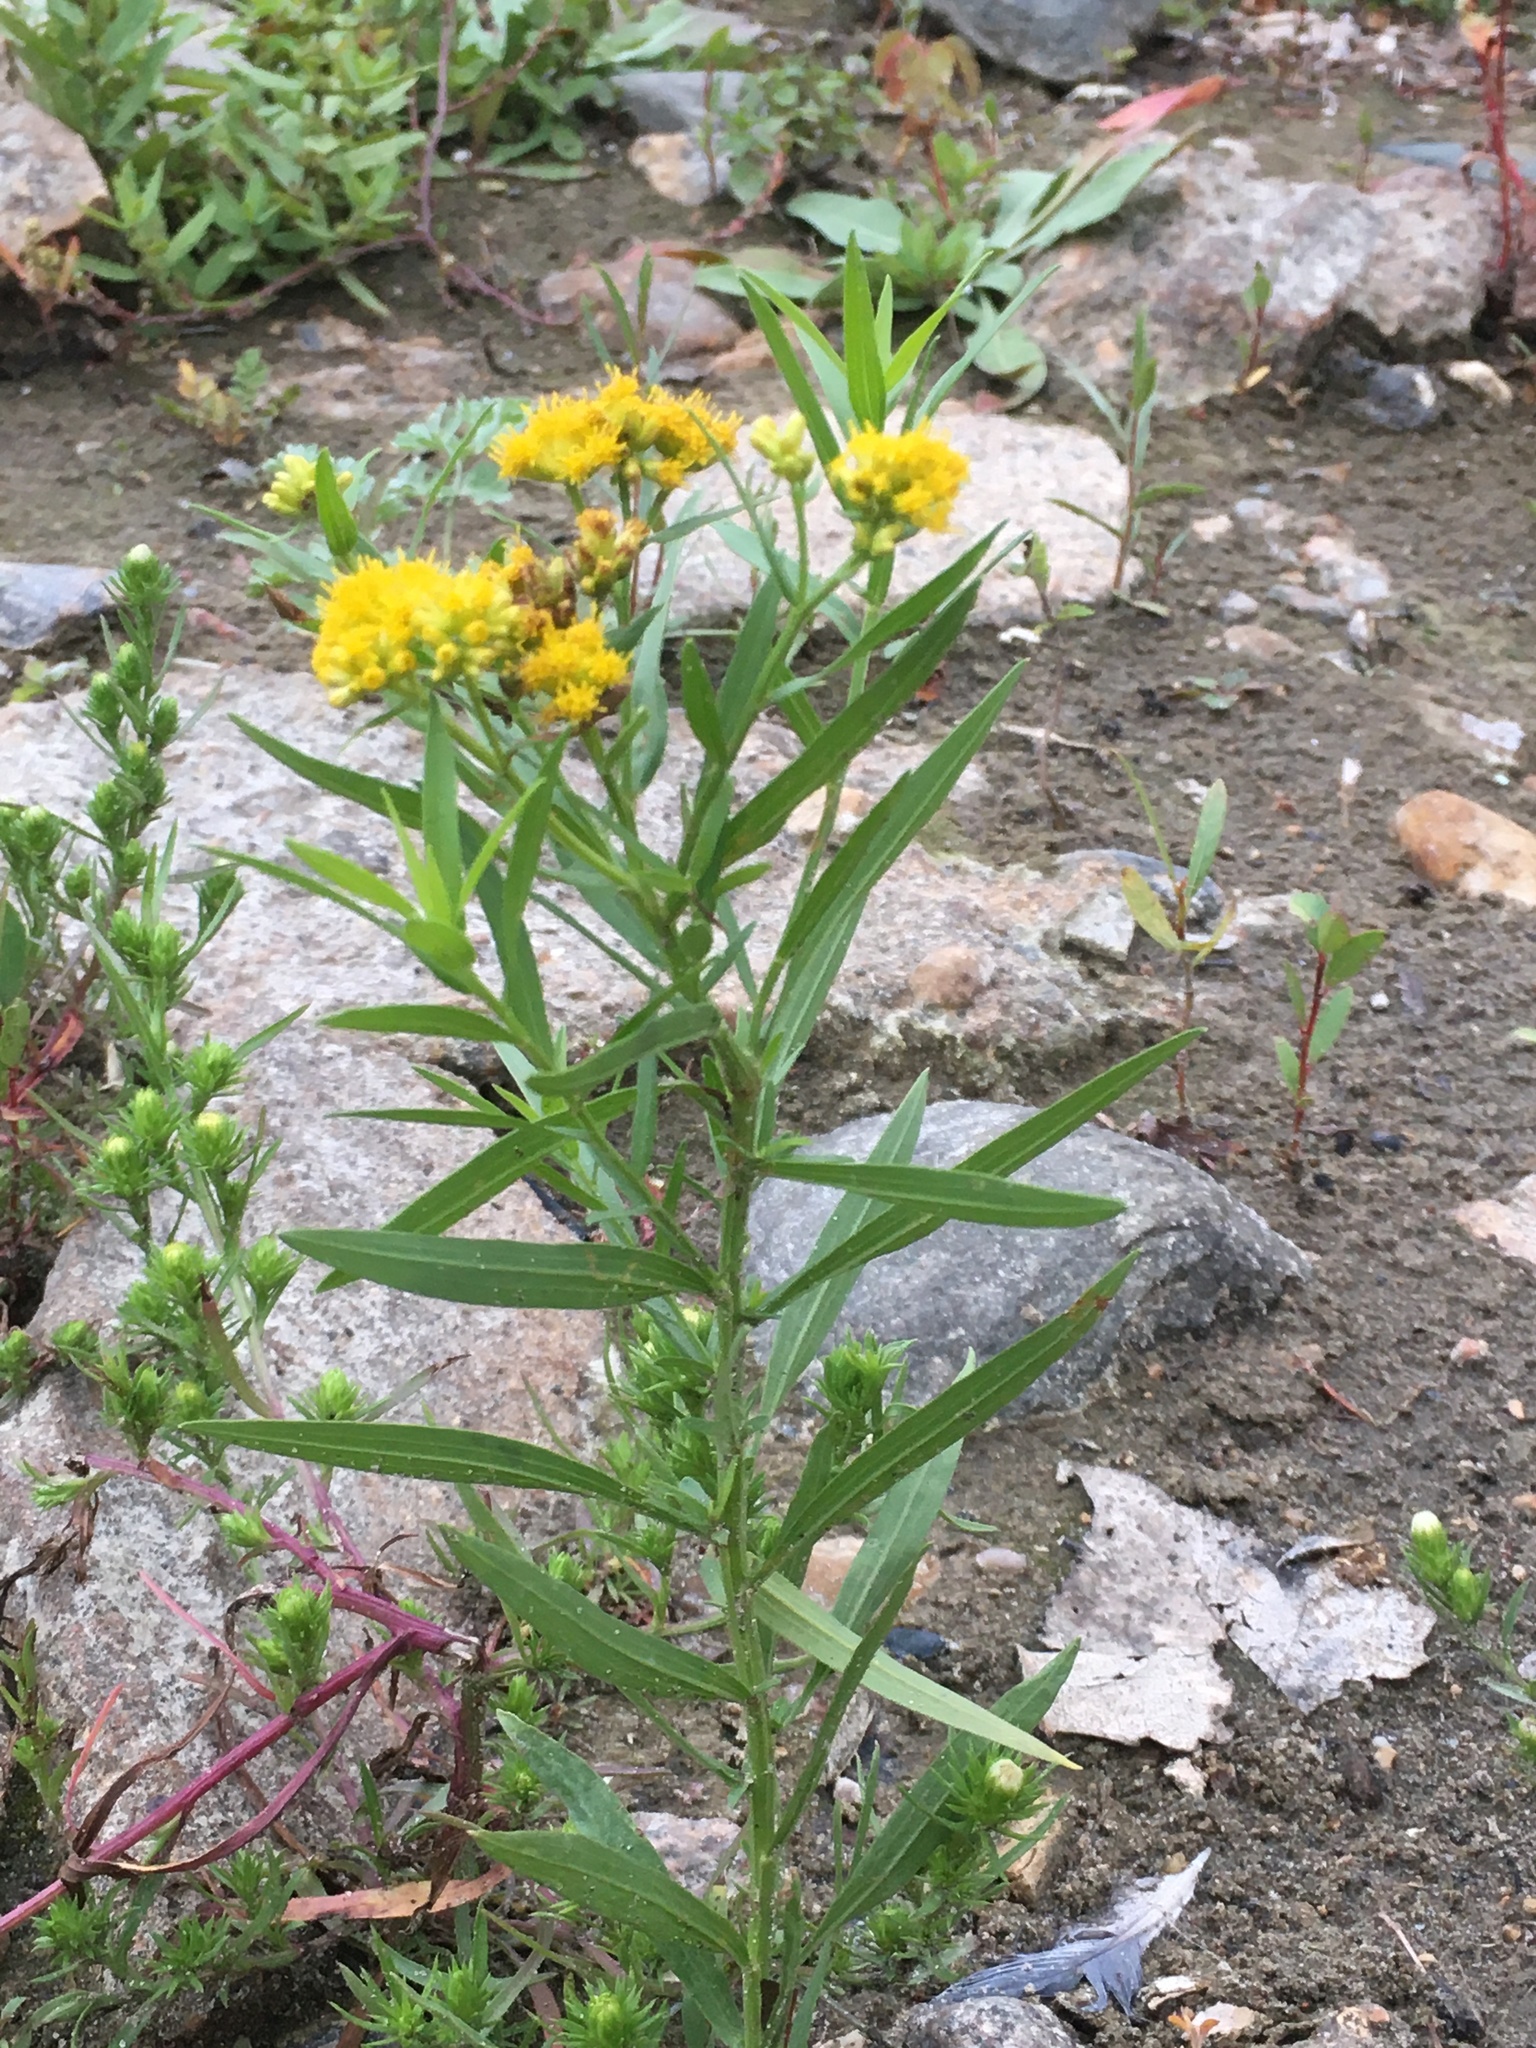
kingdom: Plantae
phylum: Tracheophyta
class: Magnoliopsida
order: Asterales
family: Asteraceae
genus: Euthamia
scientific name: Euthamia graminifolia
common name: Common goldentop
